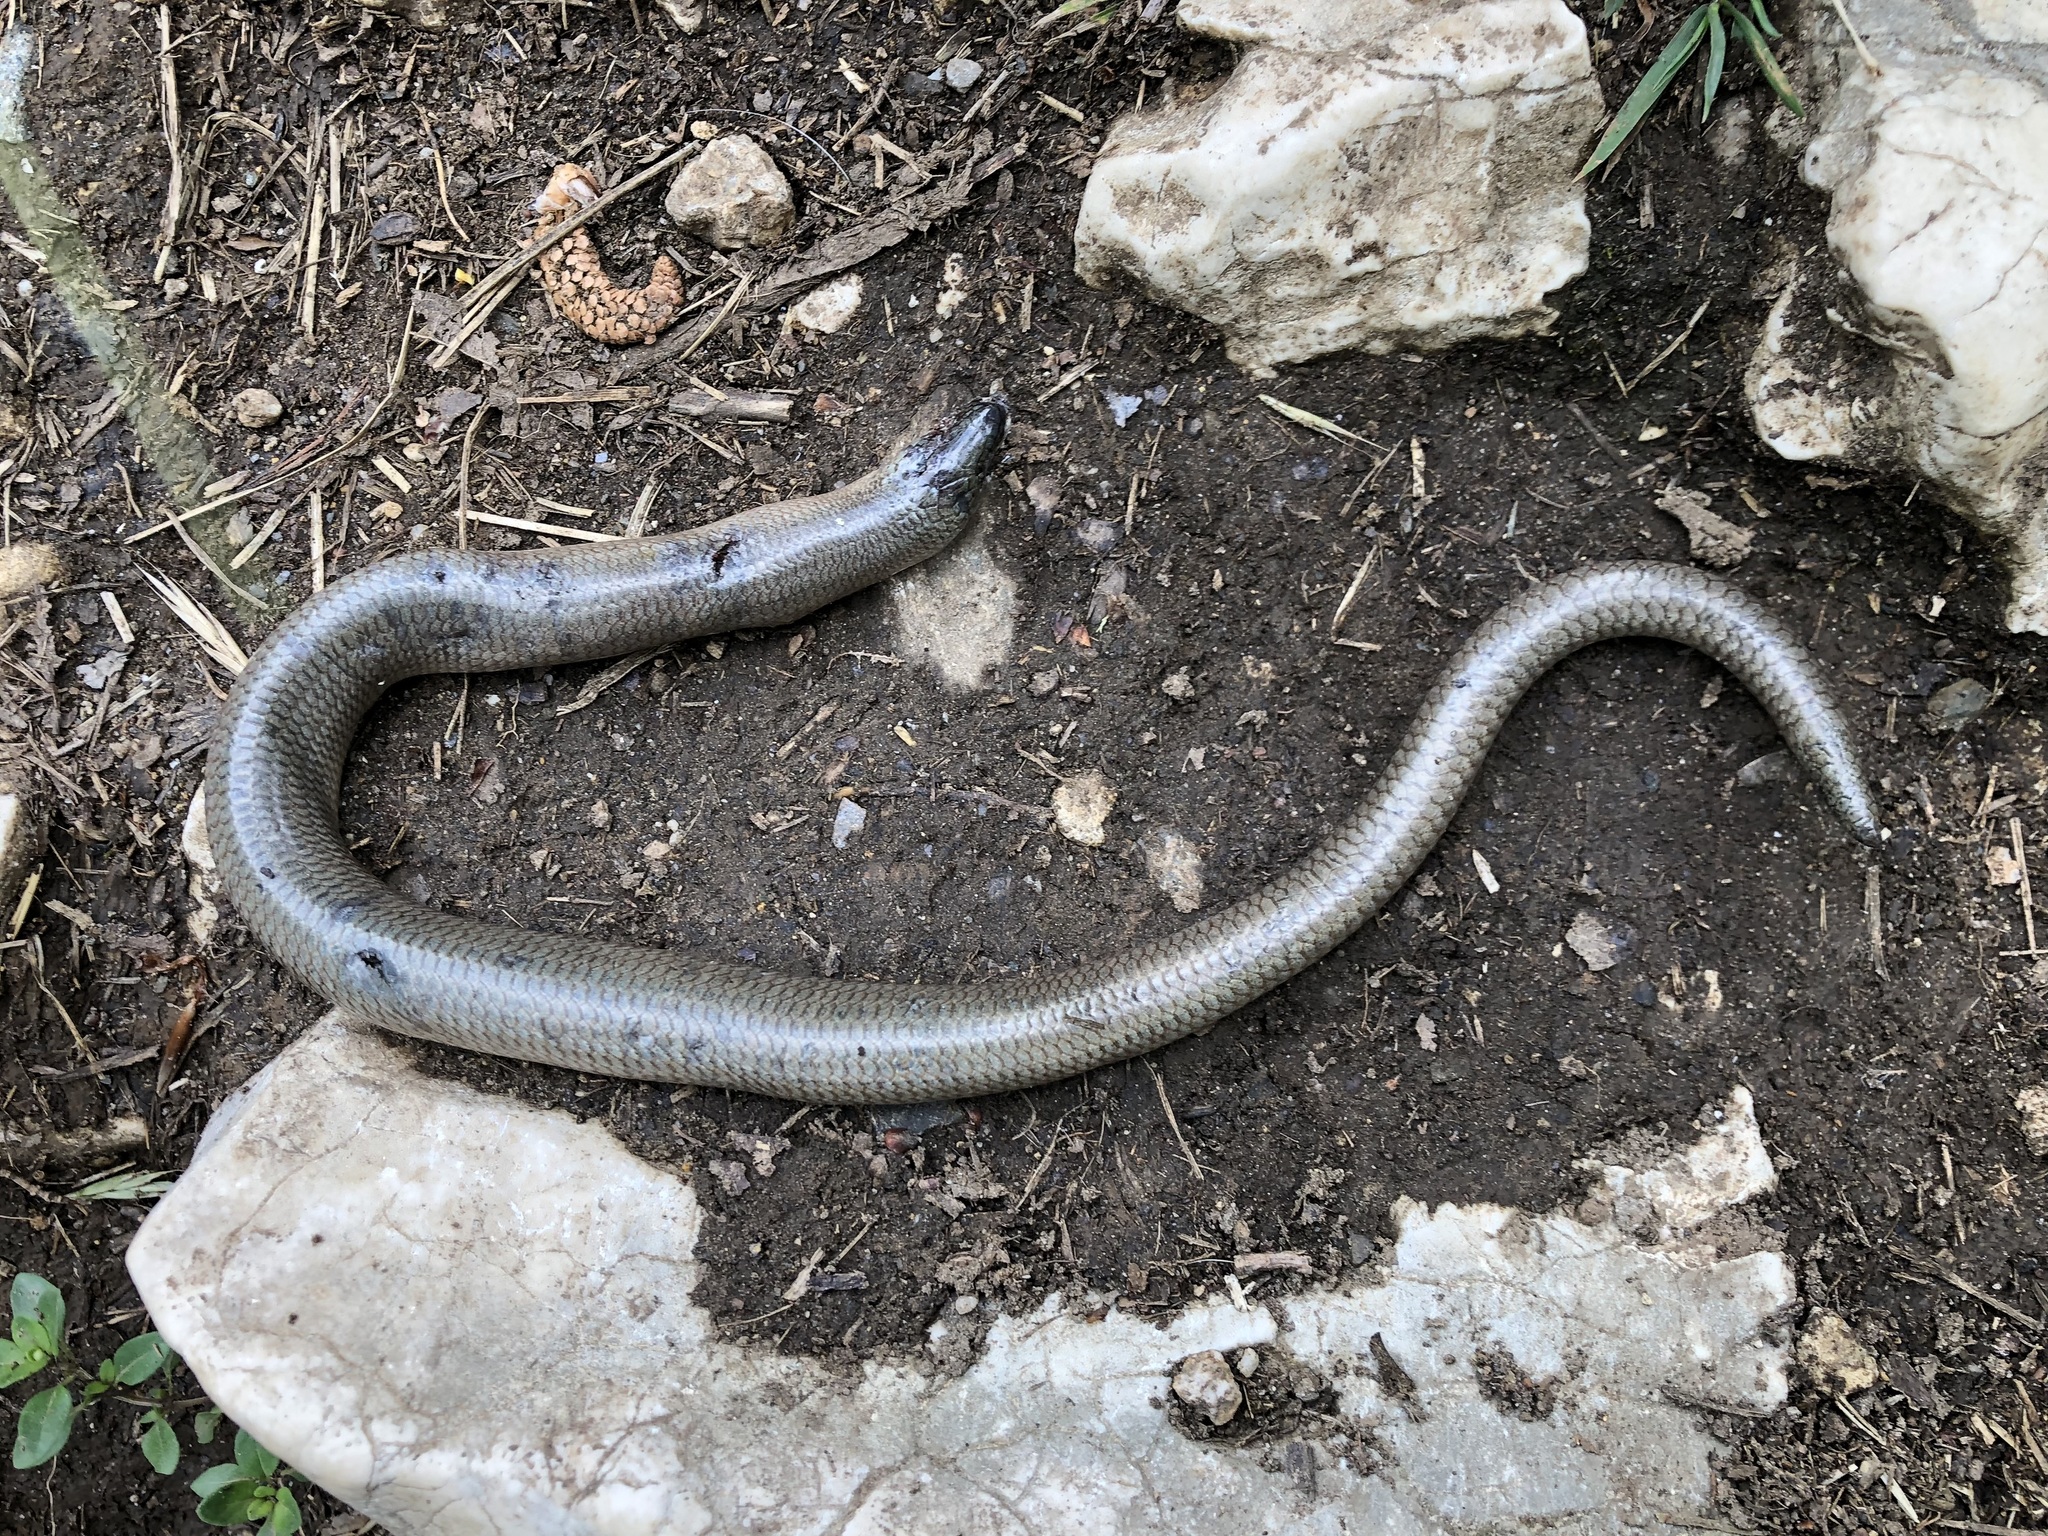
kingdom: Animalia
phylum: Chordata
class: Squamata
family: Anguidae
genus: Anguis
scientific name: Anguis fragilis
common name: Slow worm
